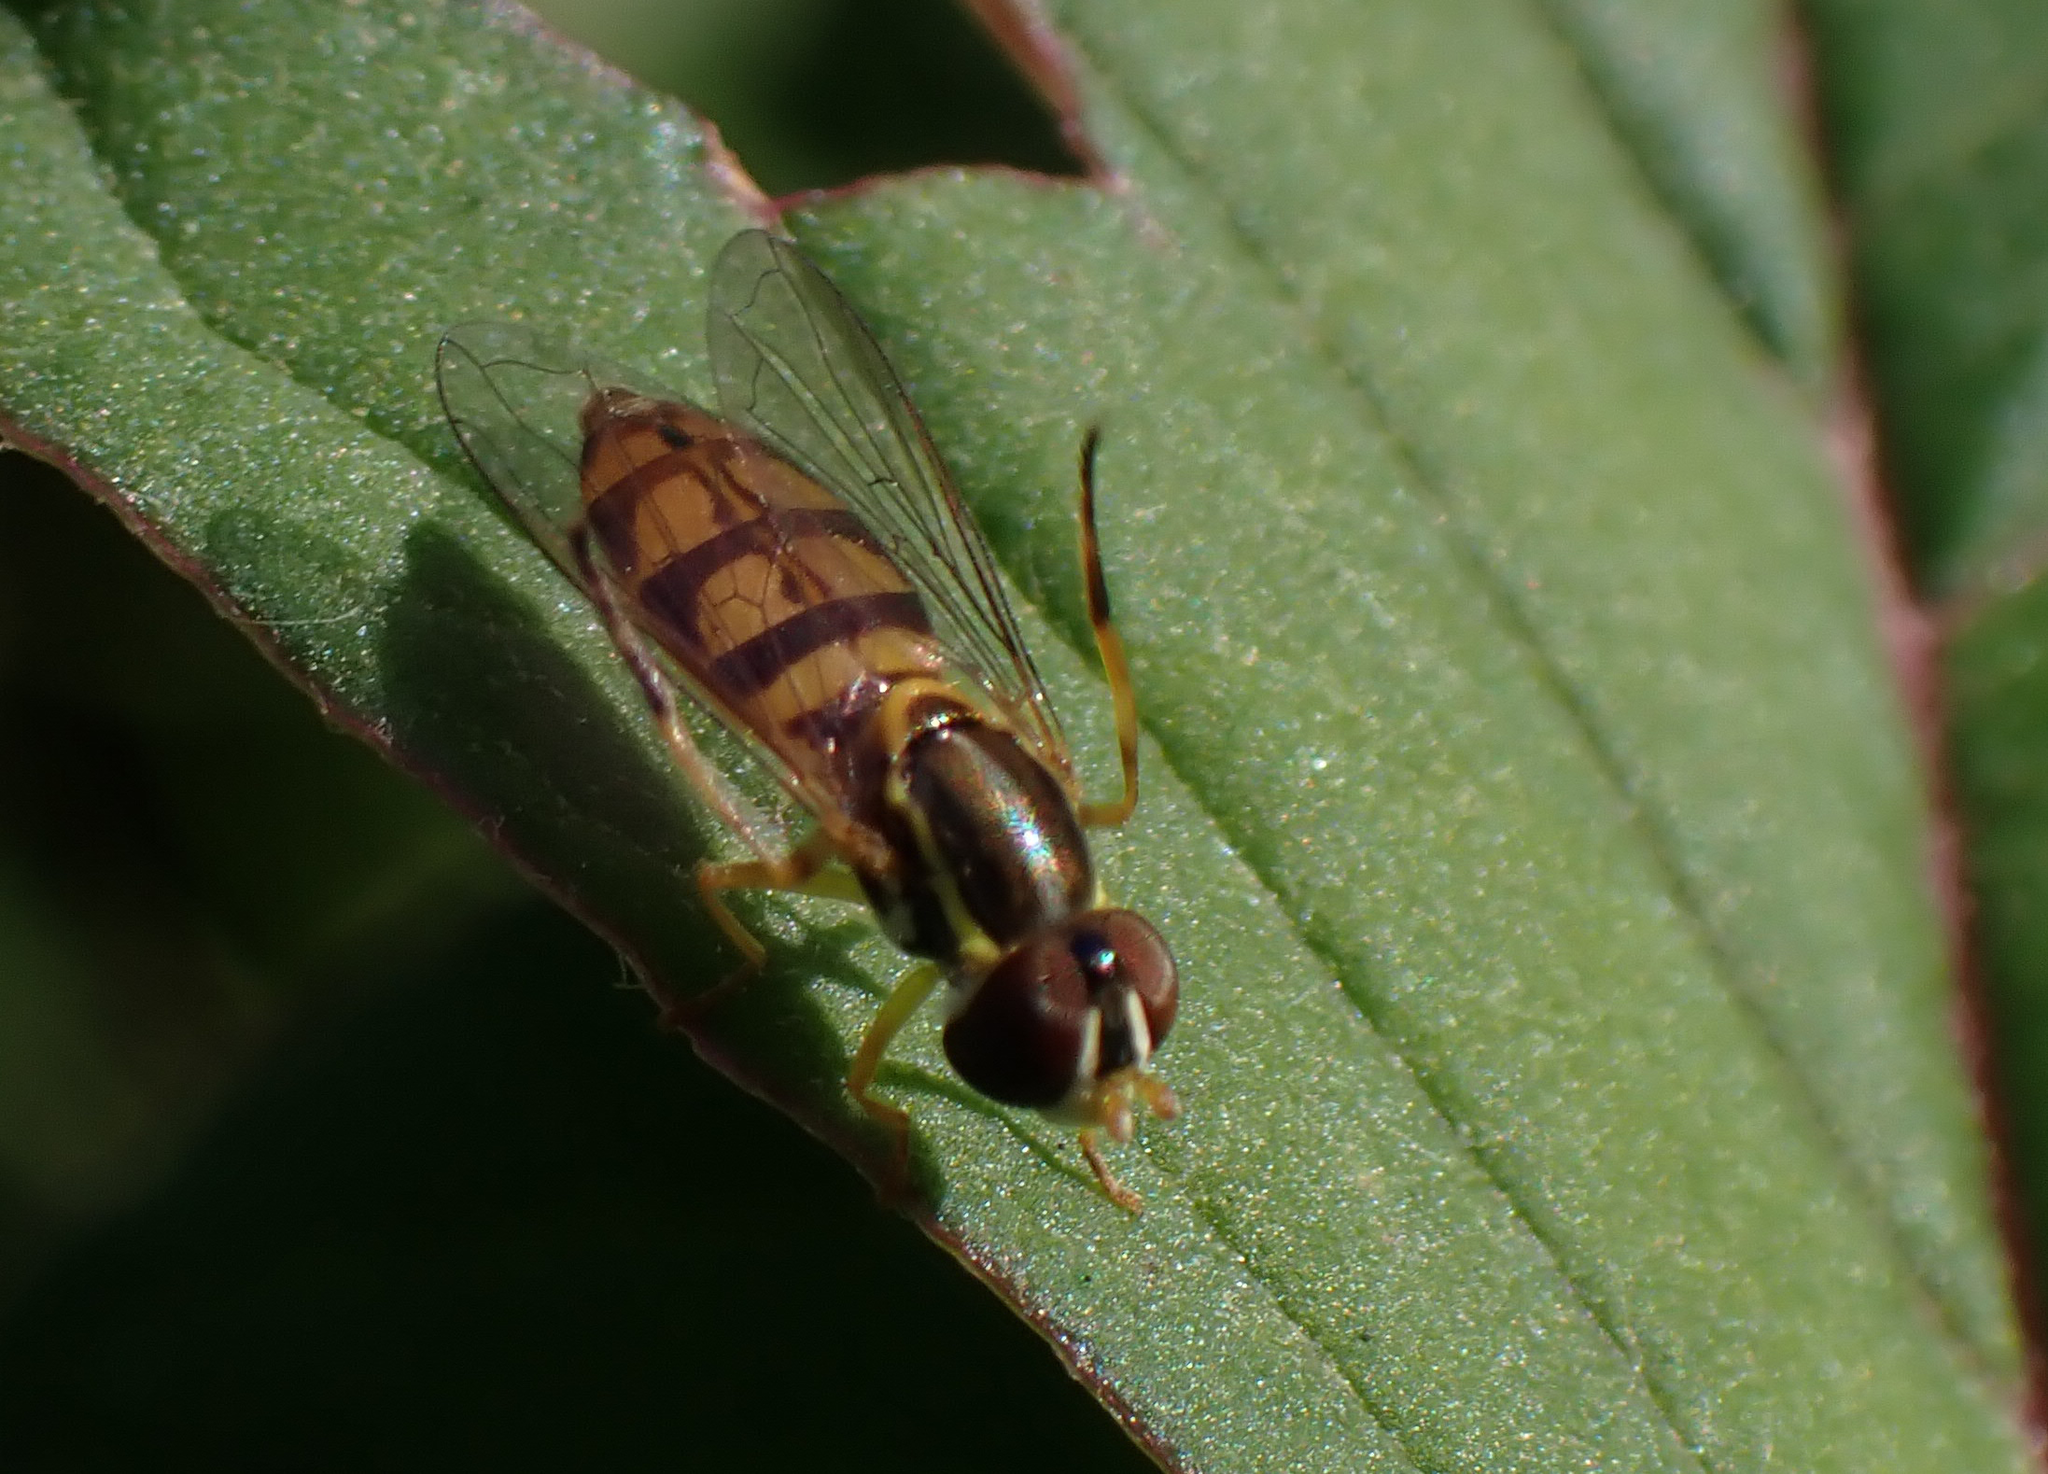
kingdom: Animalia
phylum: Arthropoda
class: Insecta
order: Diptera
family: Syrphidae
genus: Toxomerus
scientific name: Toxomerus floralis
